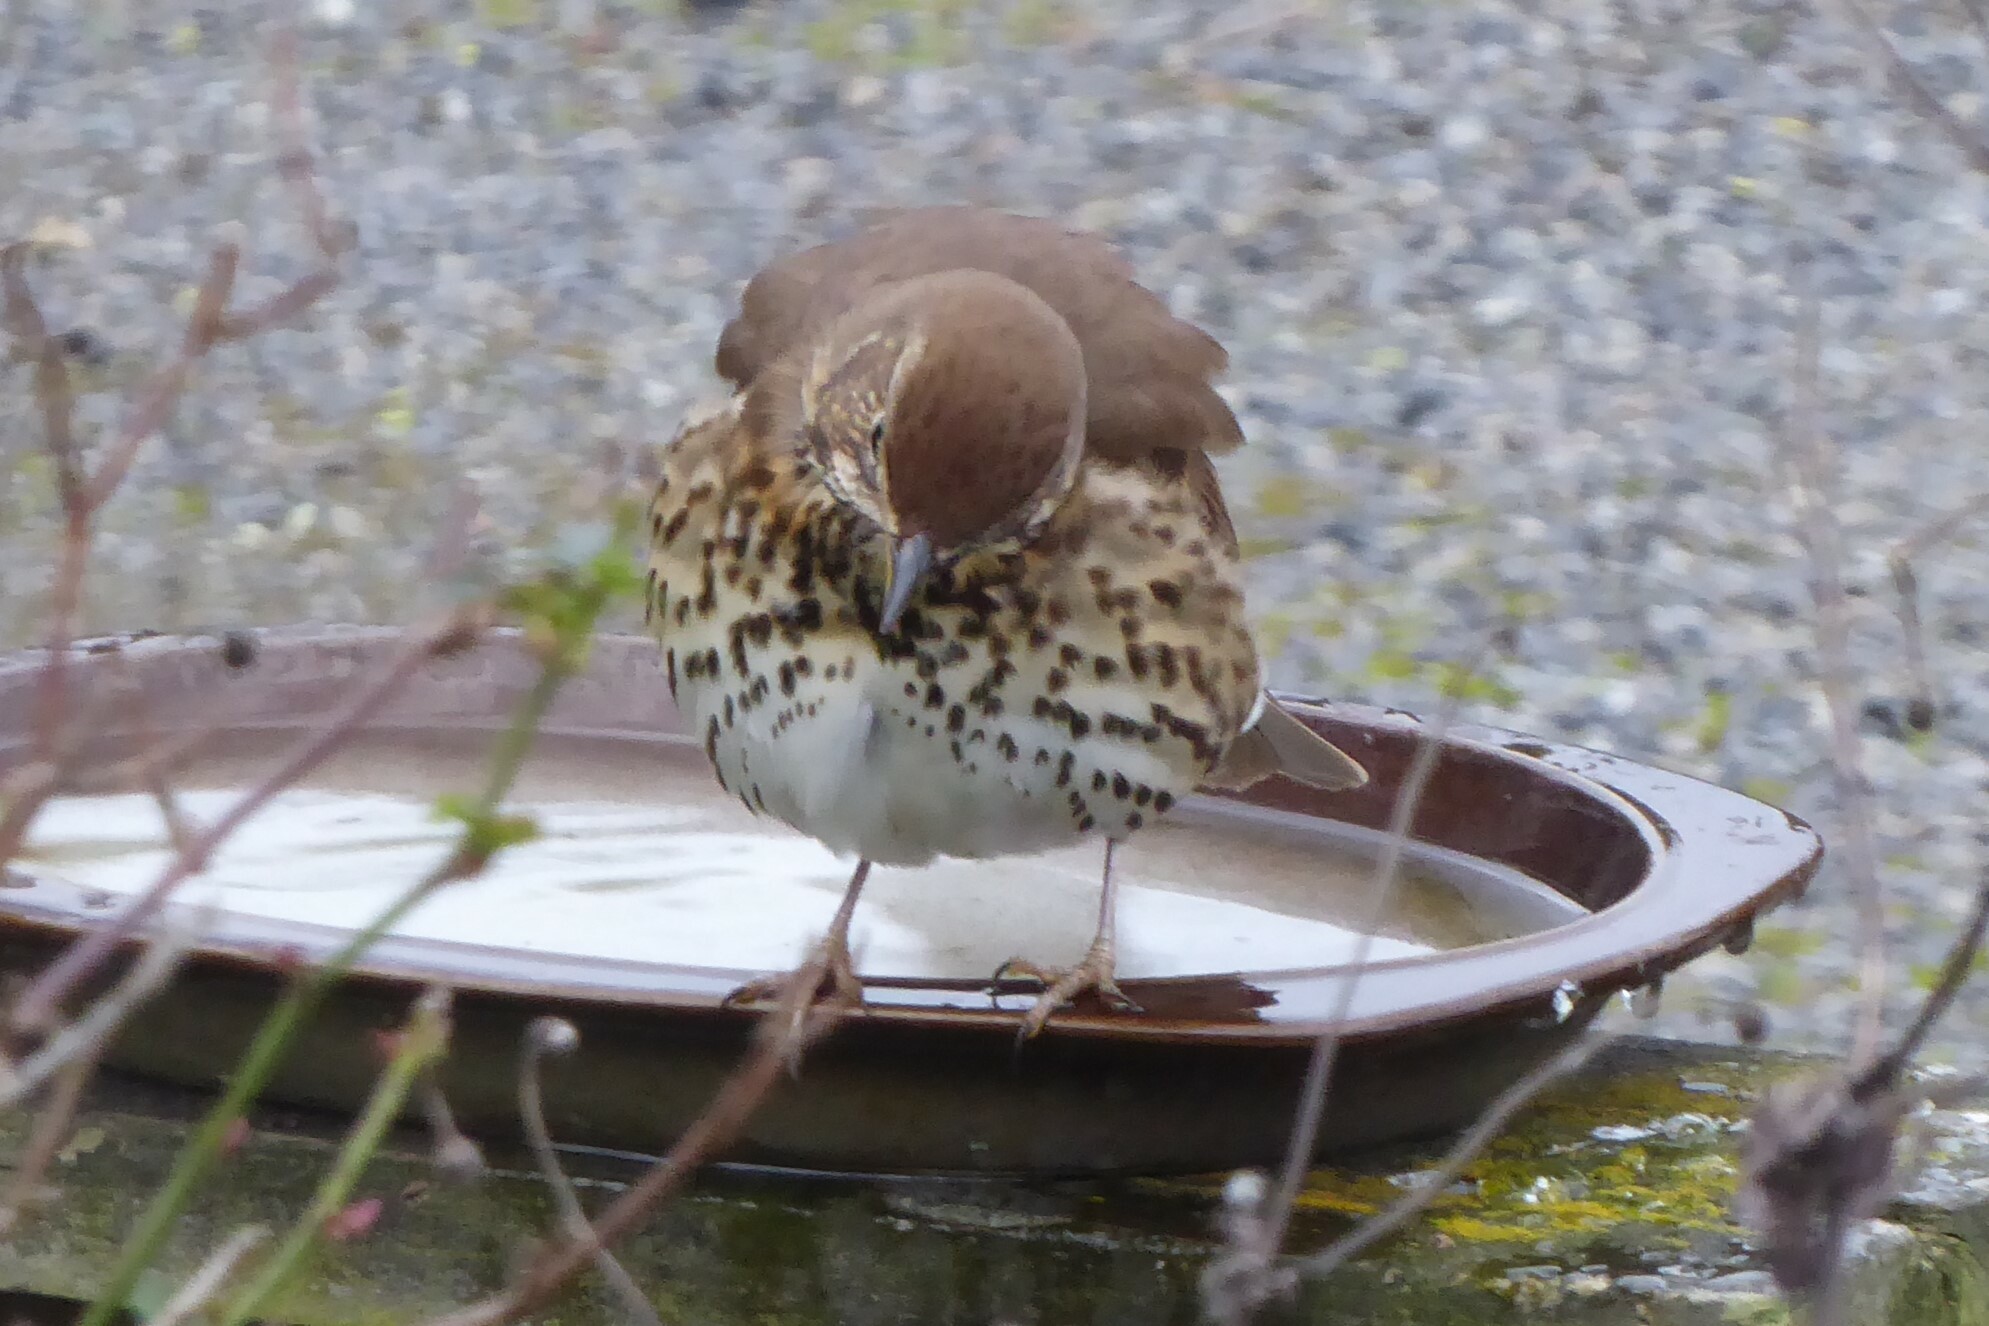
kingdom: Animalia
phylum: Chordata
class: Aves
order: Passeriformes
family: Turdidae
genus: Turdus
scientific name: Turdus philomelos
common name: Song thrush
